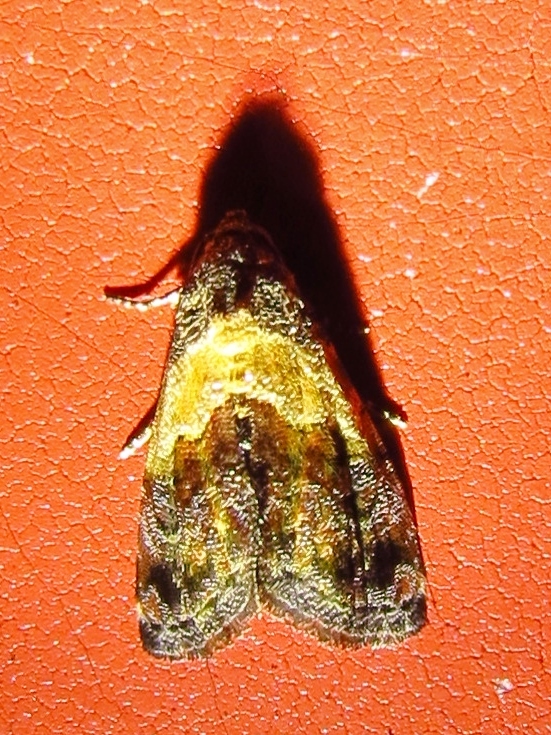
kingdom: Animalia
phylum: Arthropoda
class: Insecta
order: Lepidoptera
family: Noctuidae
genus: Tripudia
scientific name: Tripudia flavofasciata
